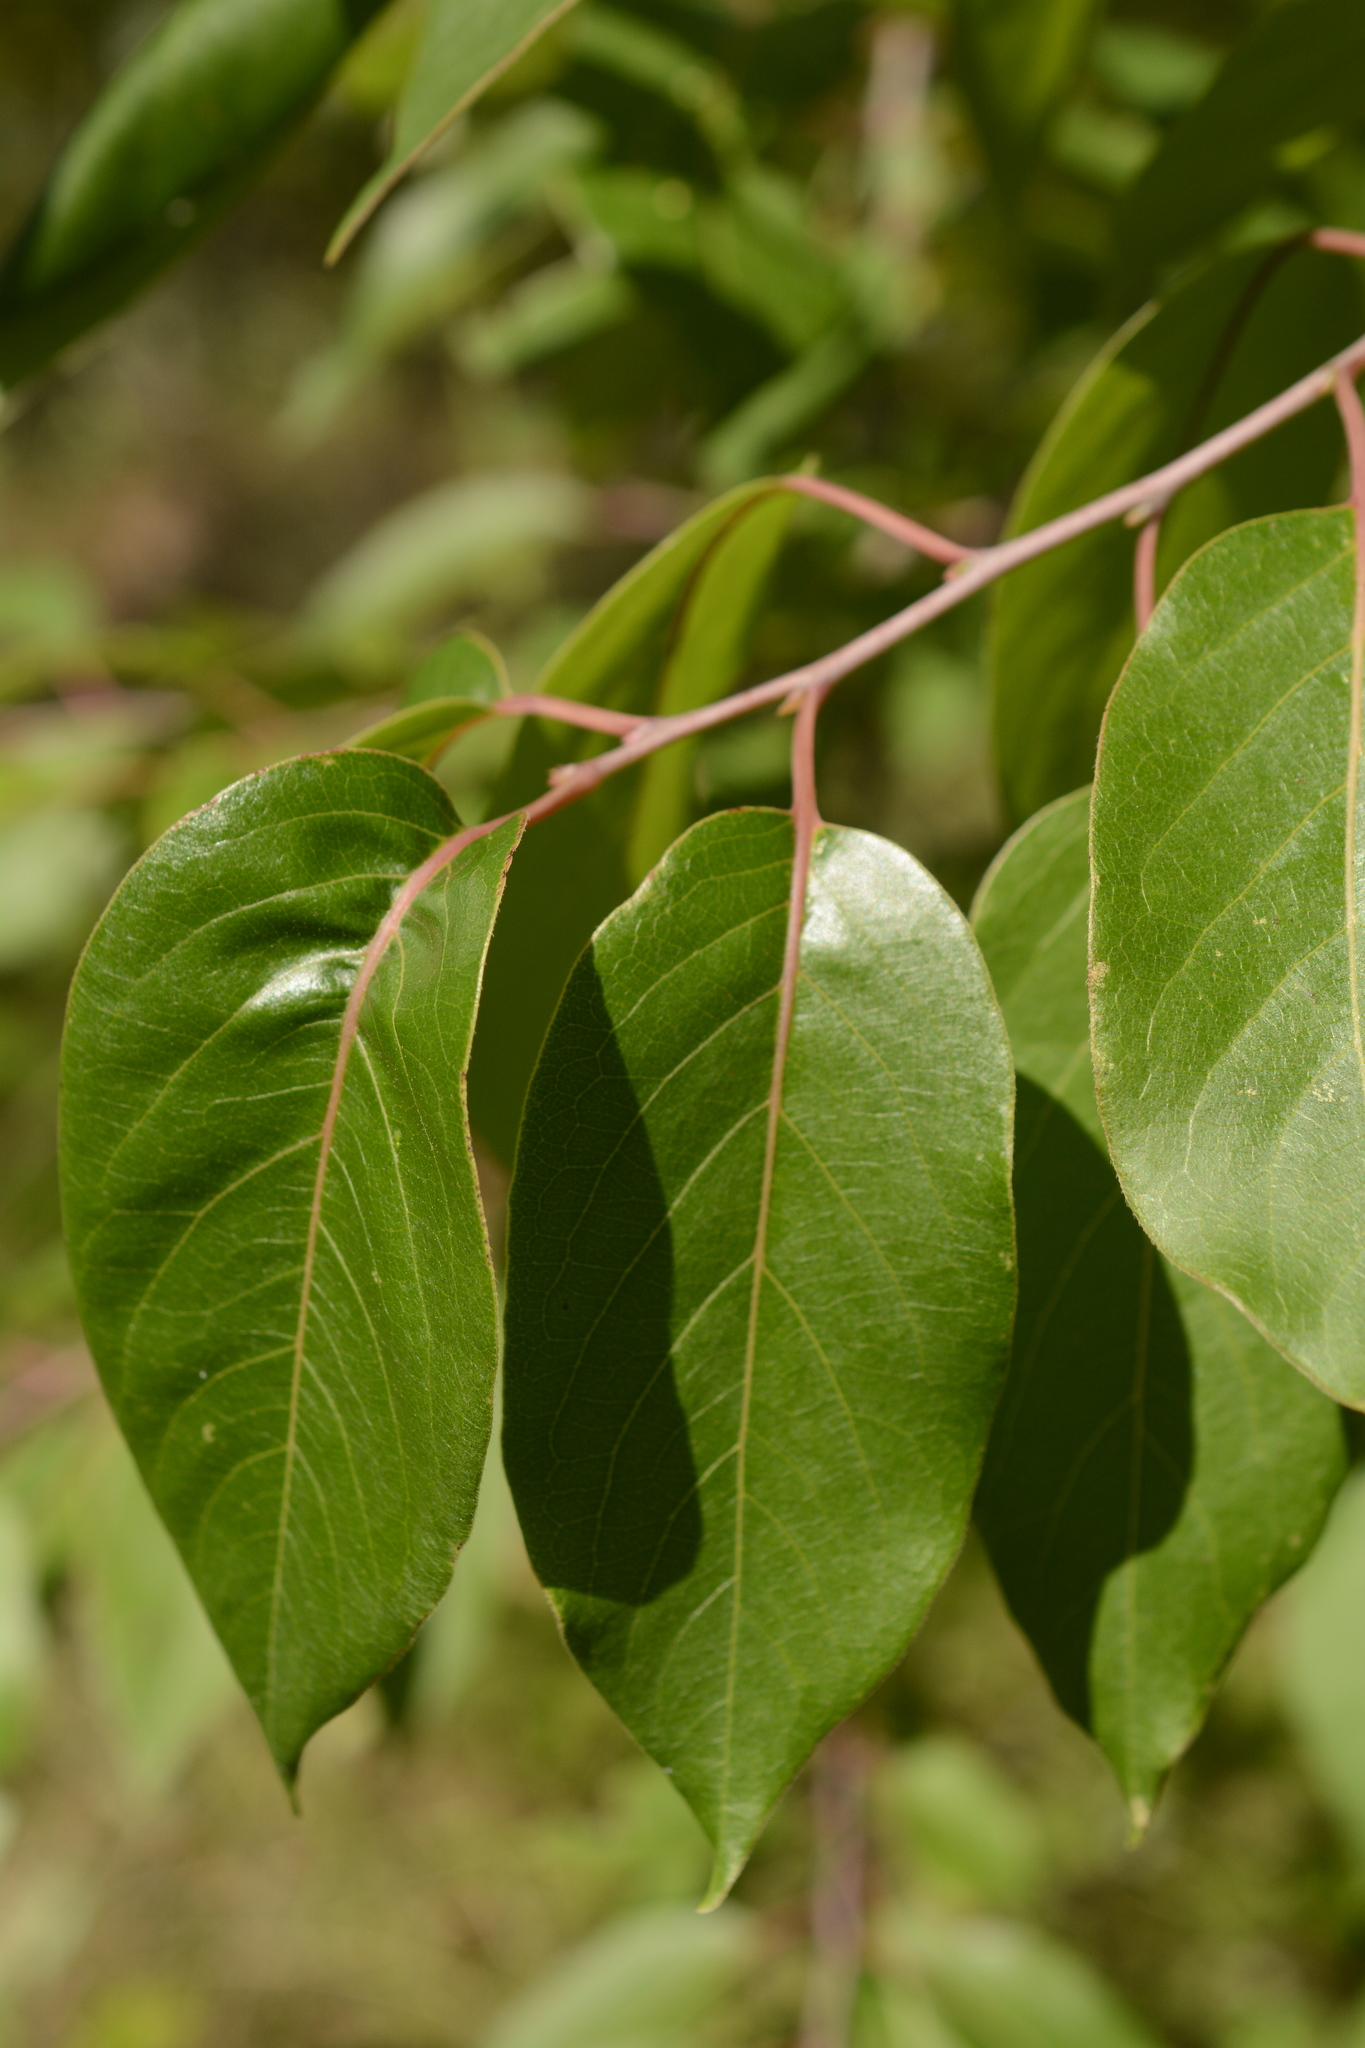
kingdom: Plantae
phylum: Tracheophyta
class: Magnoliopsida
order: Ericales
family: Ebenaceae
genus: Diospyros
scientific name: Diospyros virginiana
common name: Persimmon
